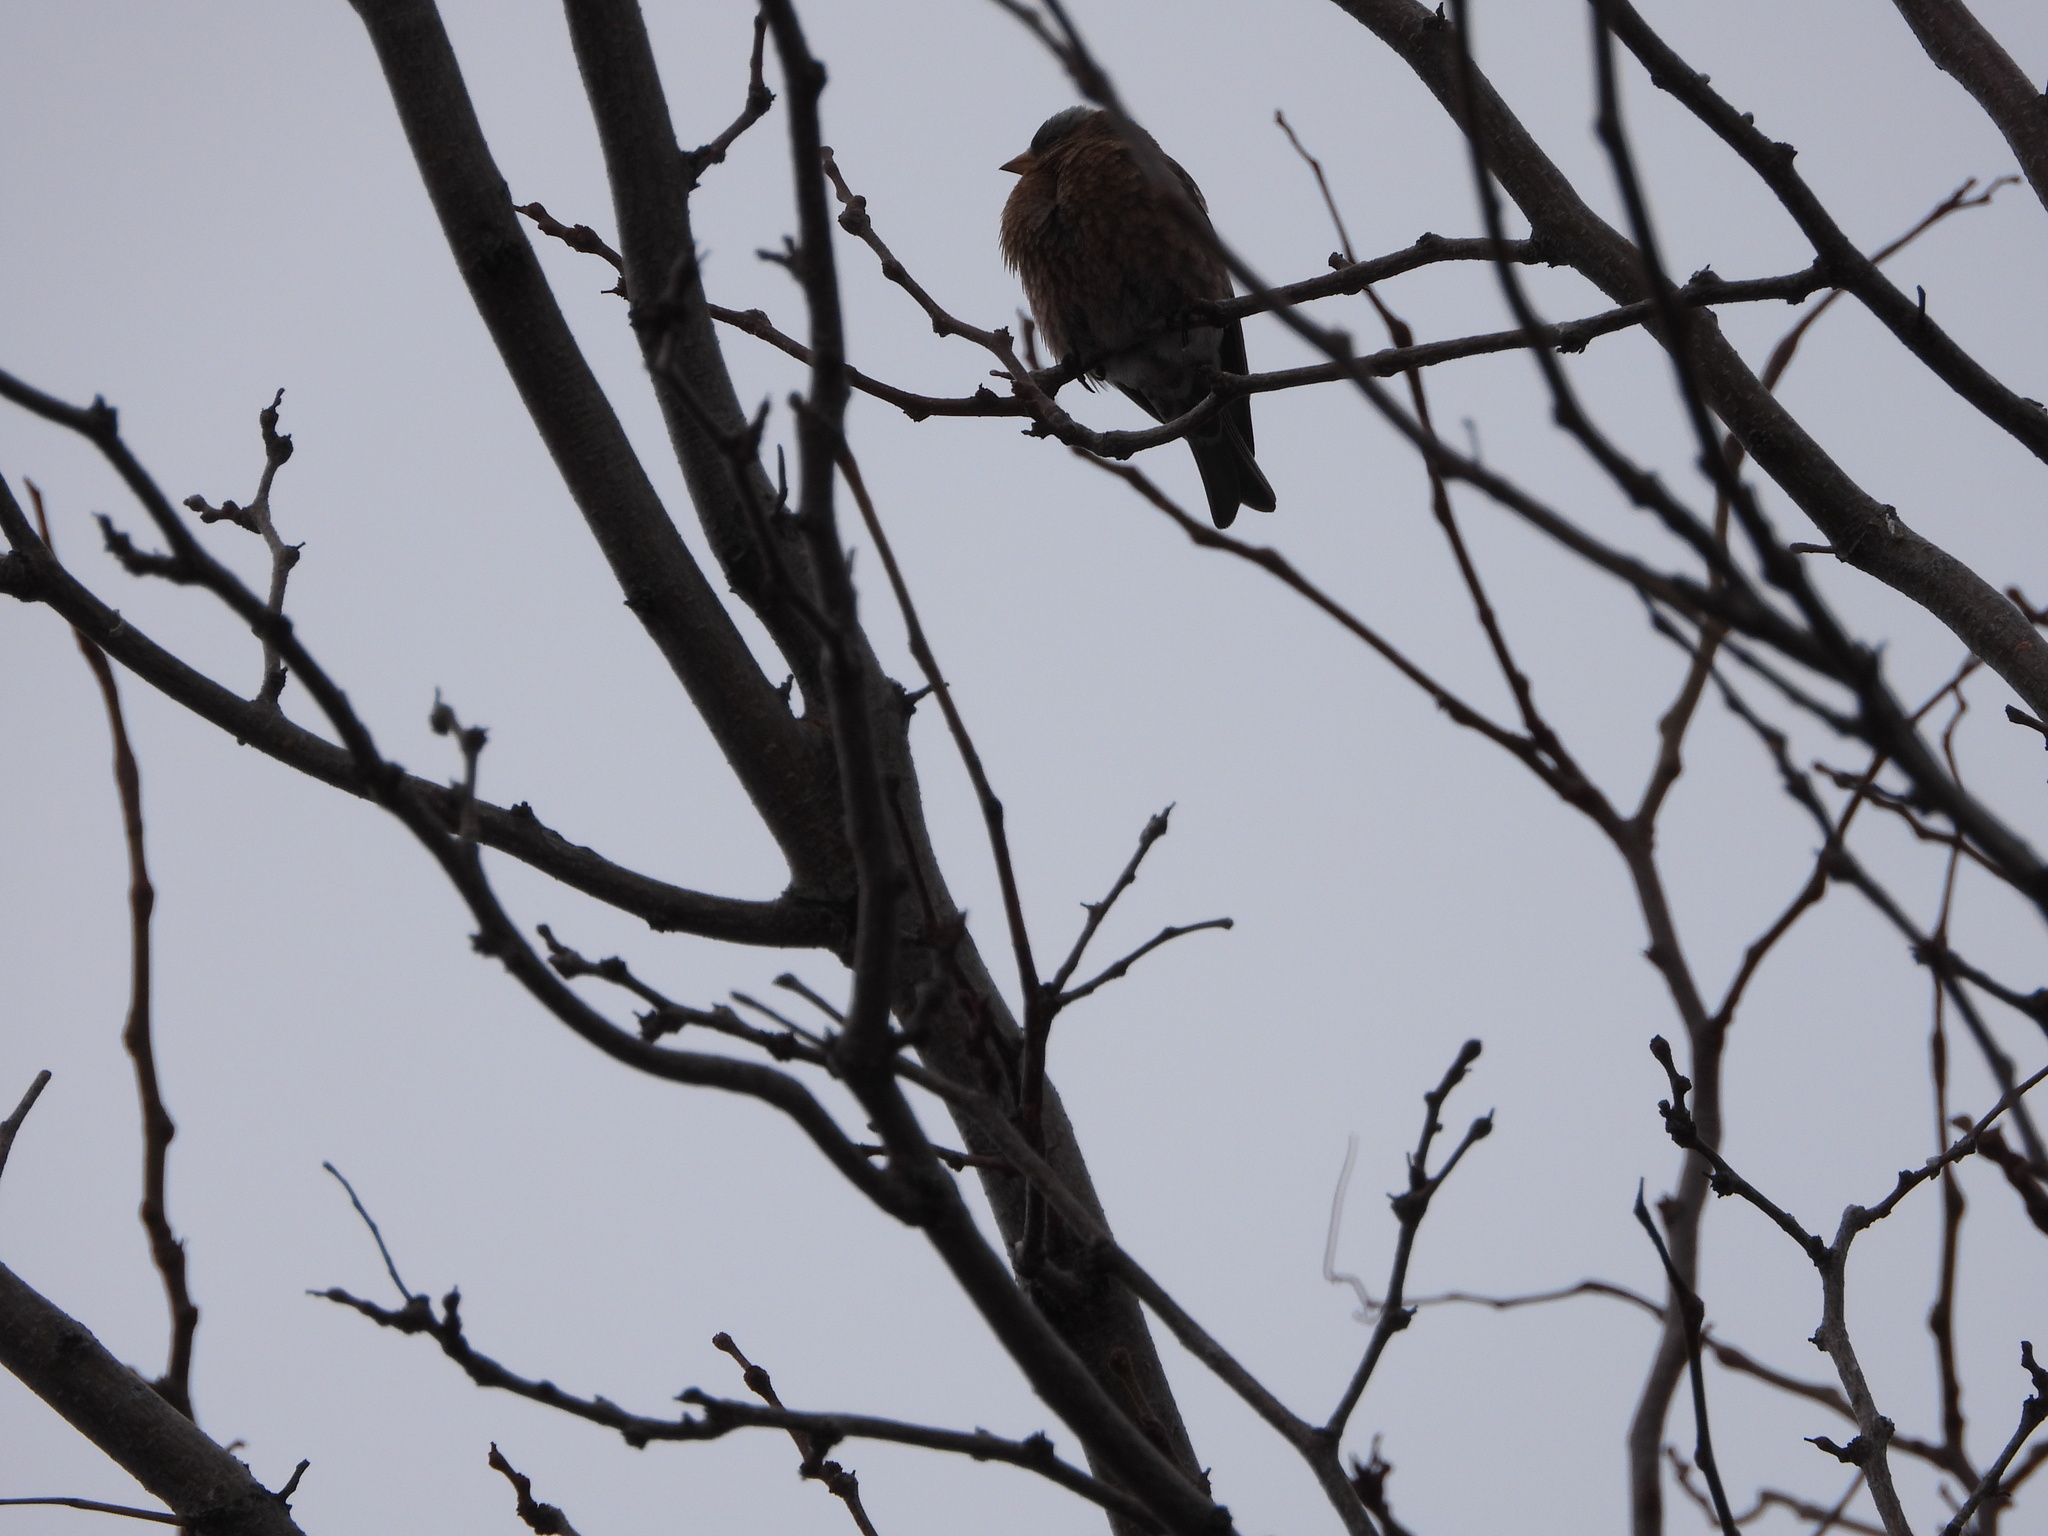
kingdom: Animalia
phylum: Chordata
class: Aves
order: Passeriformes
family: Fringillidae
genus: Leucosticte
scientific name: Leucosticte tephrocotis
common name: Gray-crowned rosy-finch
